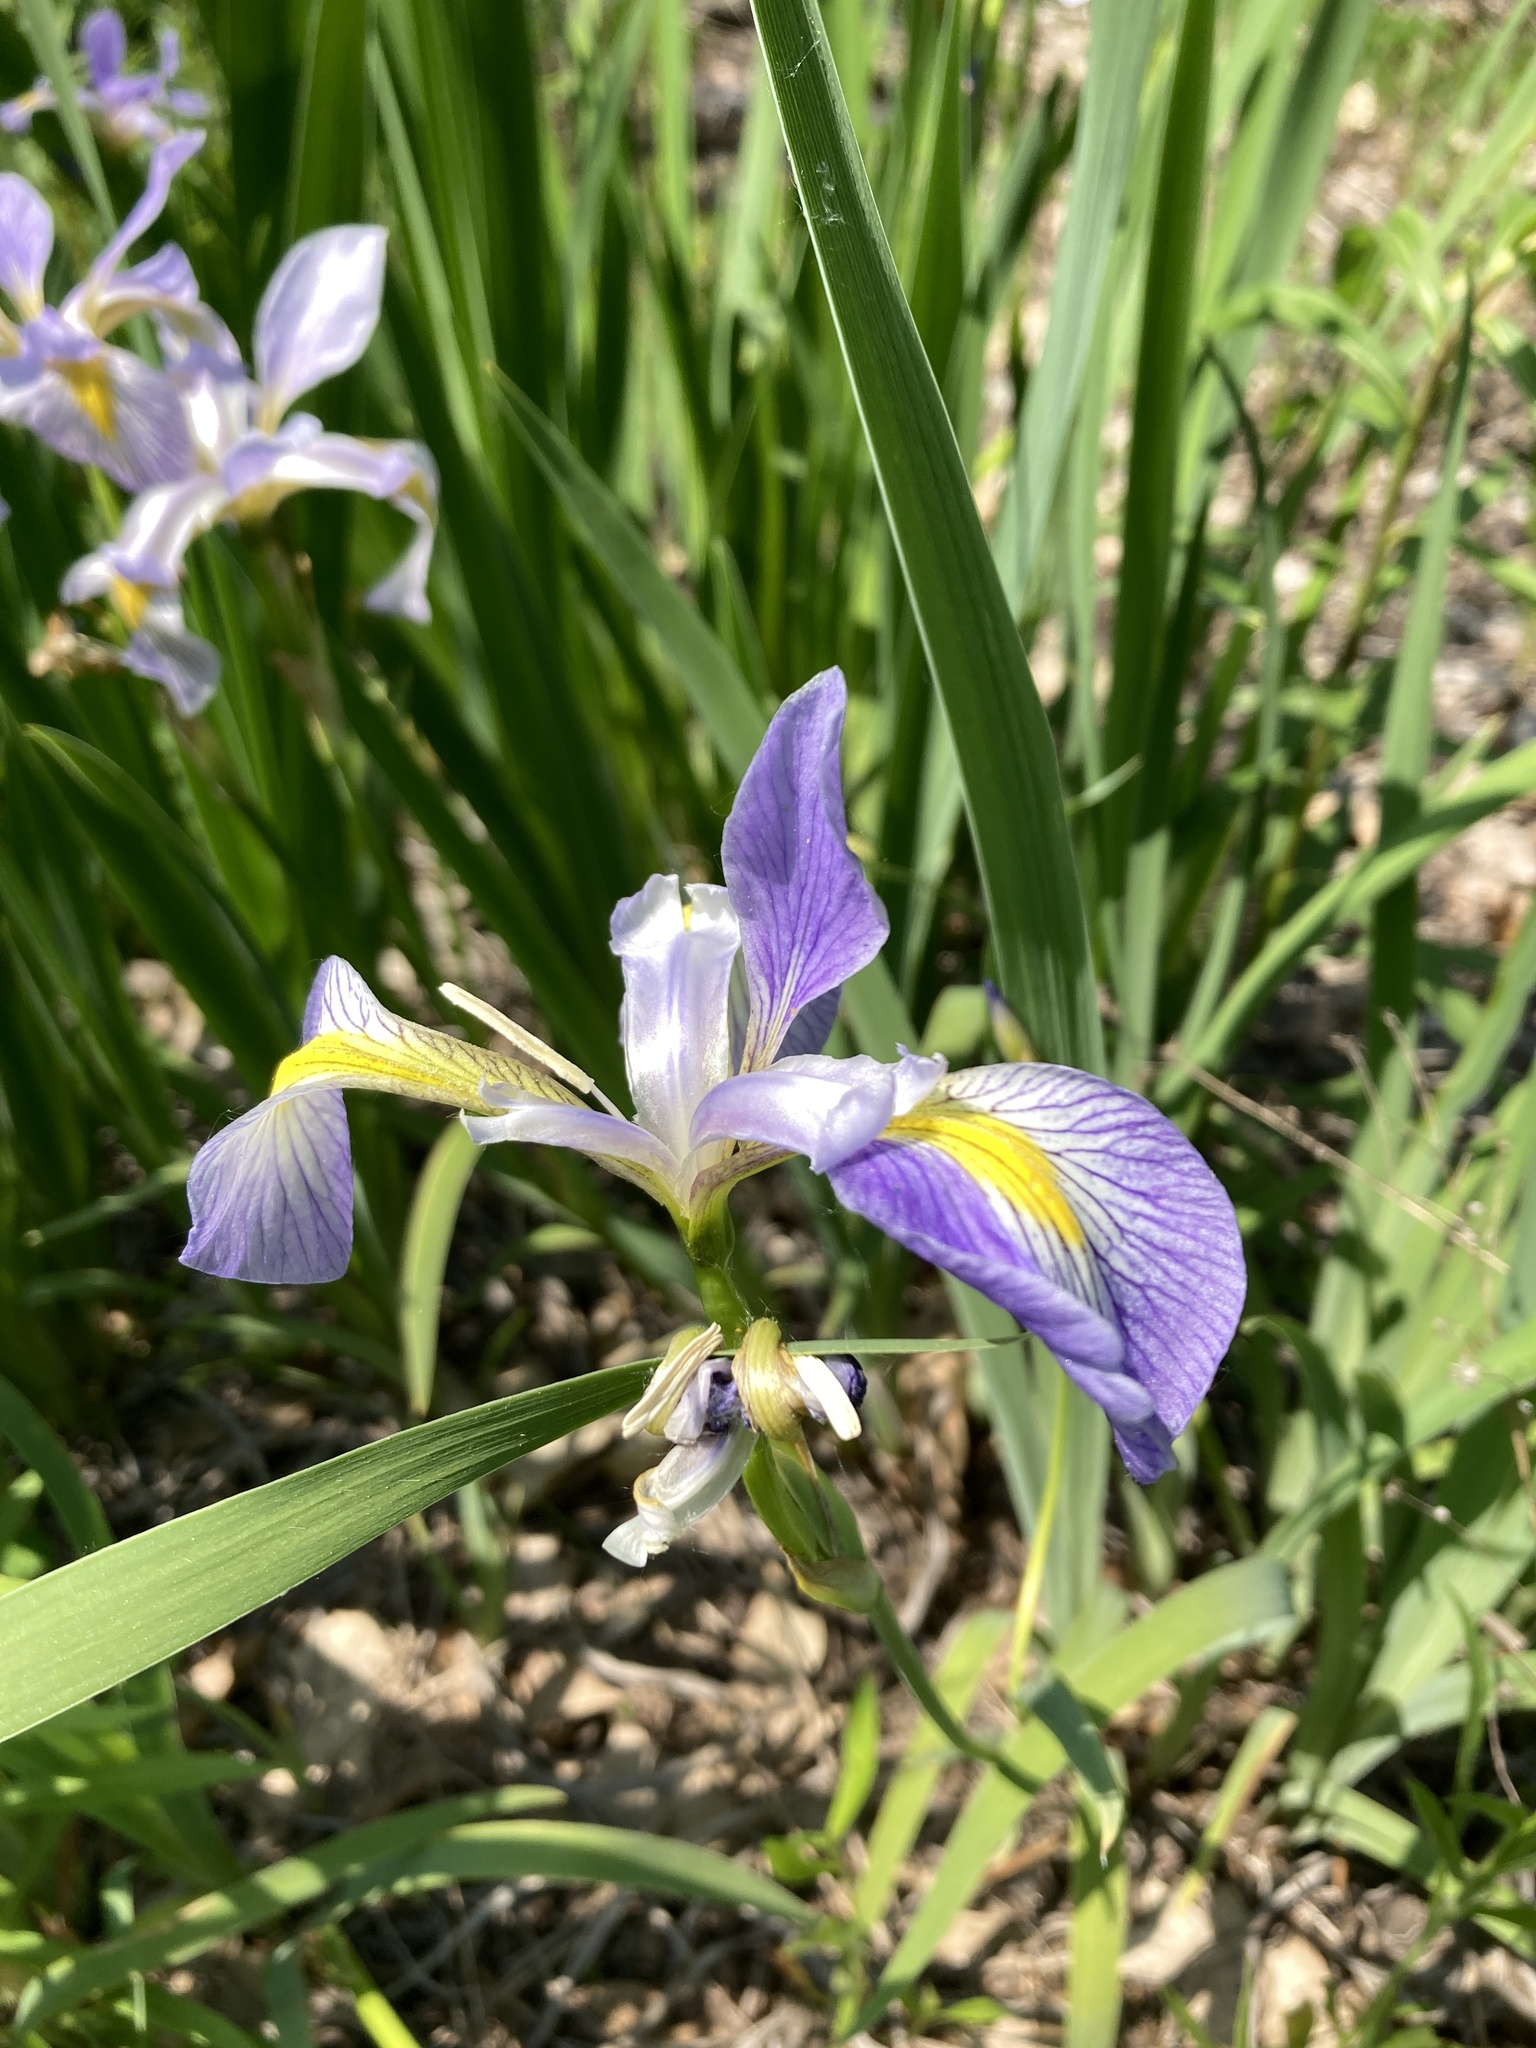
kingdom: Plantae
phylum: Tracheophyta
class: Liliopsida
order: Asparagales
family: Iridaceae
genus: Iris
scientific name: Iris virginica
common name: Southern blue flag
